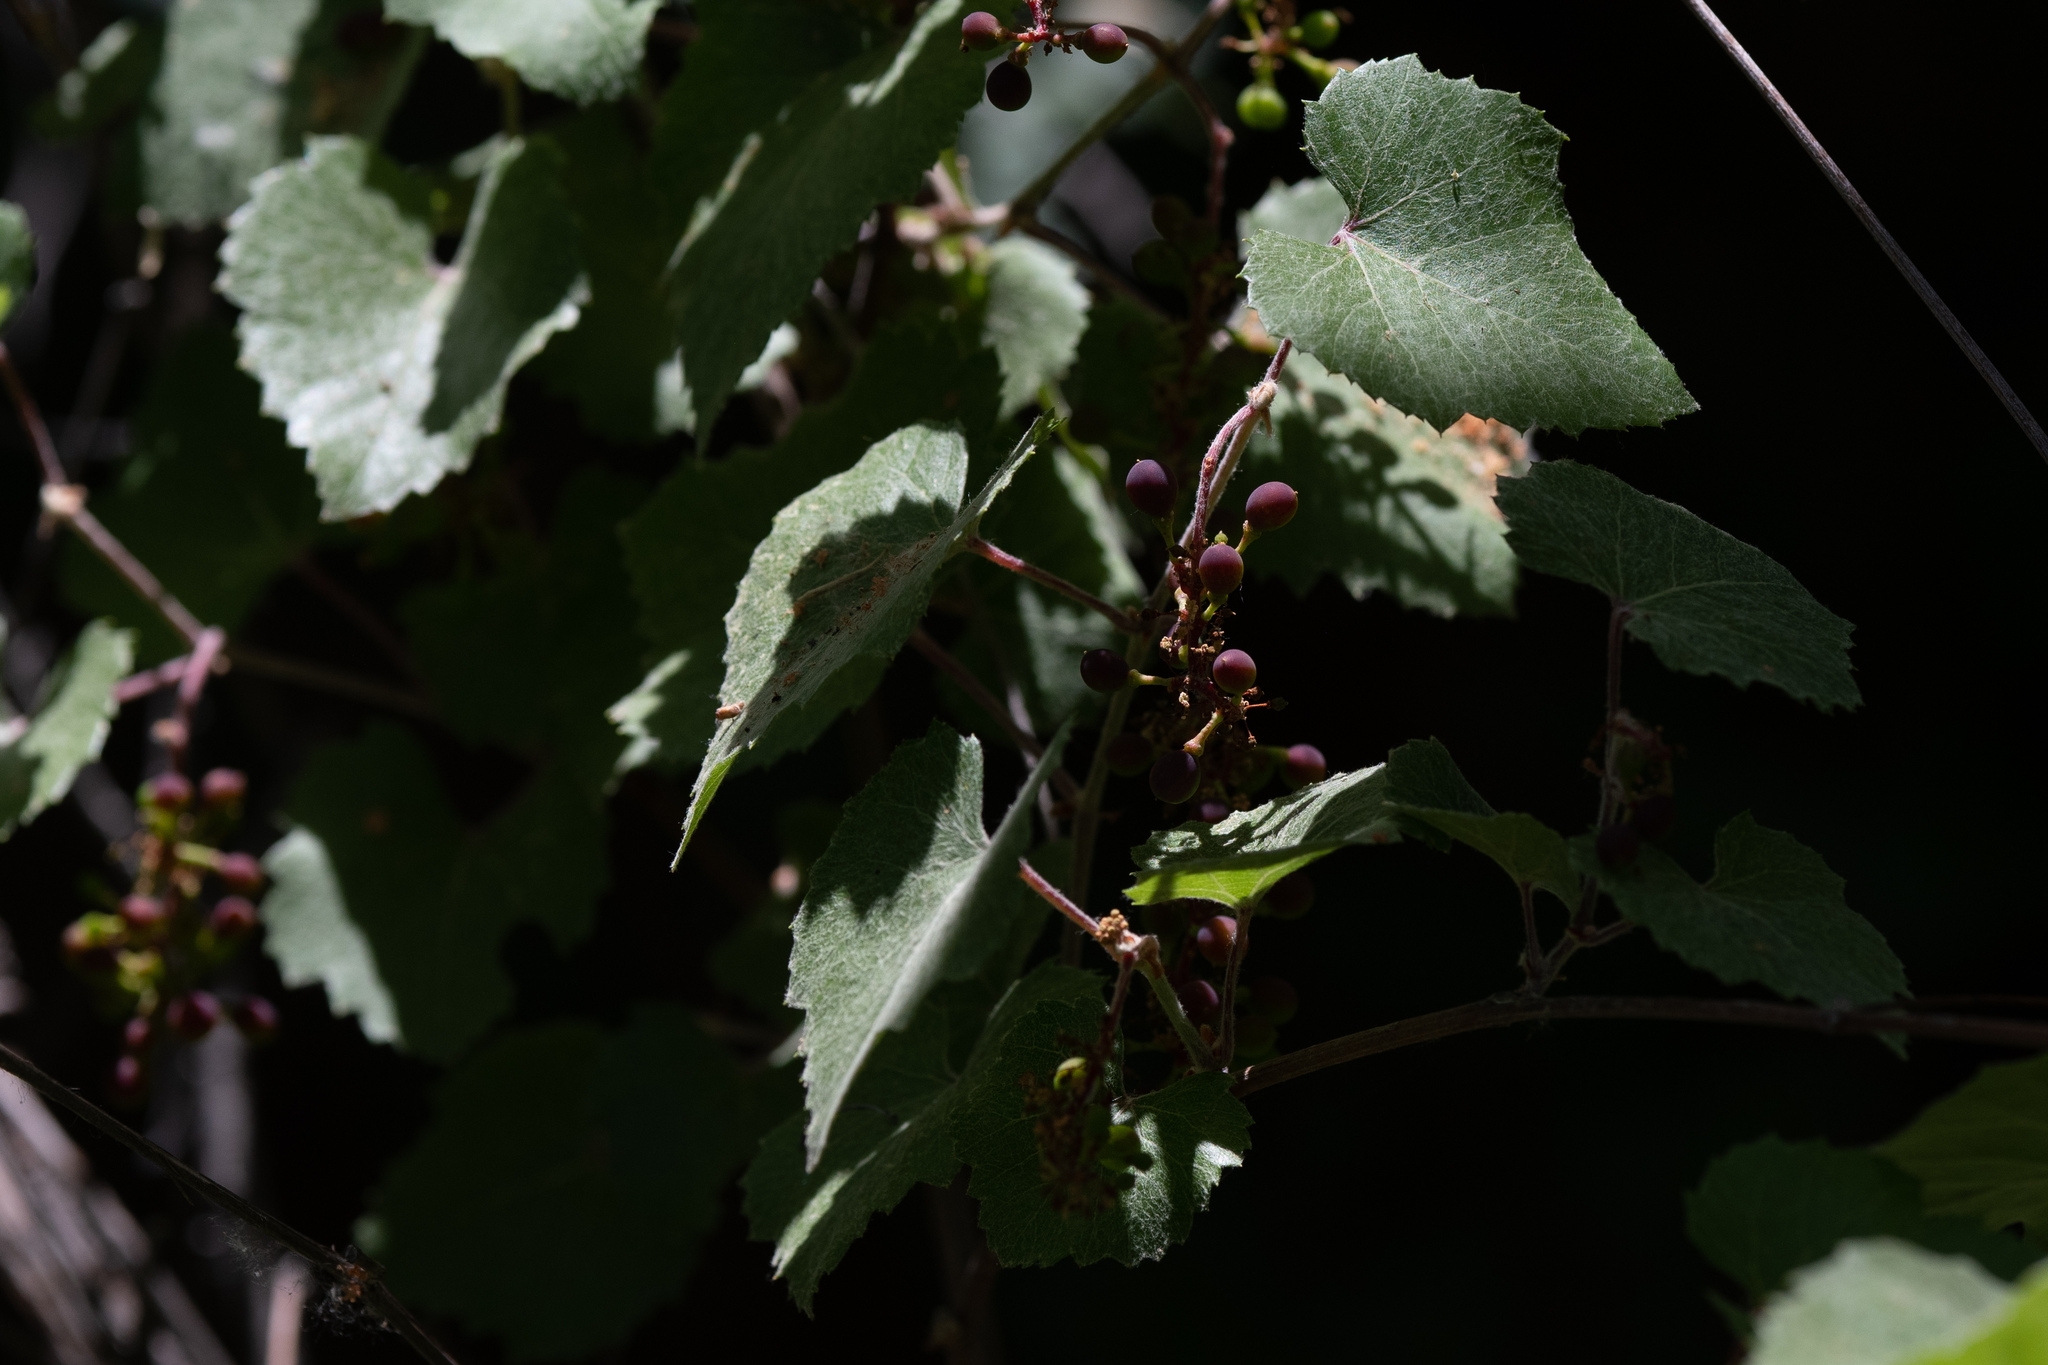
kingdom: Plantae
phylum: Tracheophyta
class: Magnoliopsida
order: Vitales
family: Vitaceae
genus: Vitis
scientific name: Vitis arizonica
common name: Canyon grape
